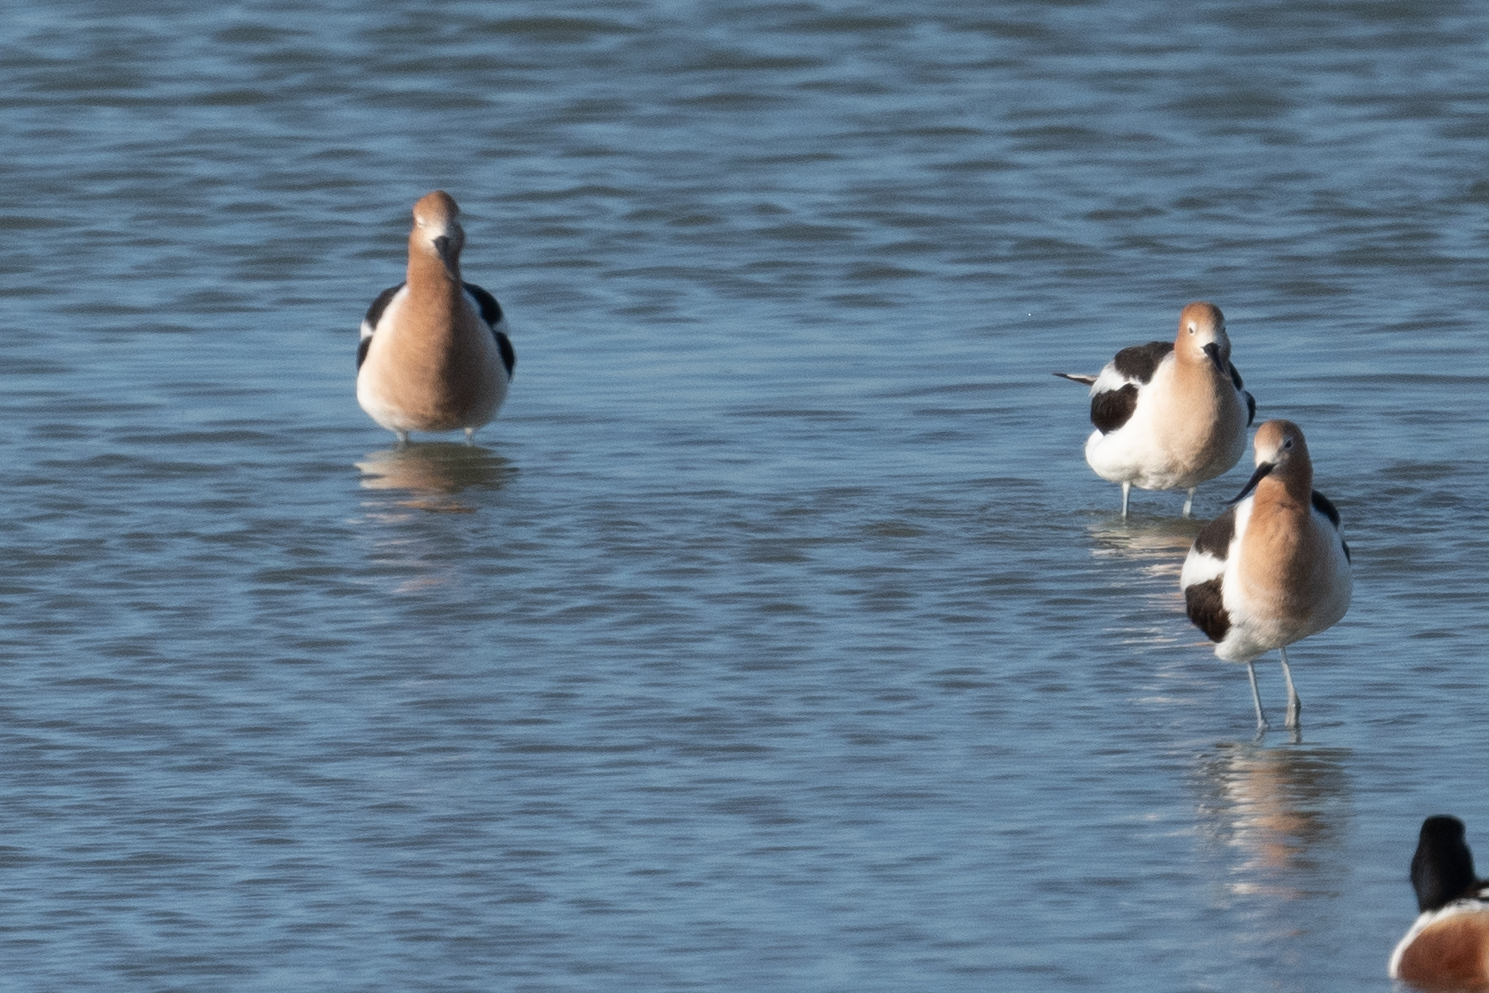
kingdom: Animalia
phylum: Chordata
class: Aves
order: Charadriiformes
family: Recurvirostridae
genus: Recurvirostra
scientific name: Recurvirostra americana
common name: American avocet
